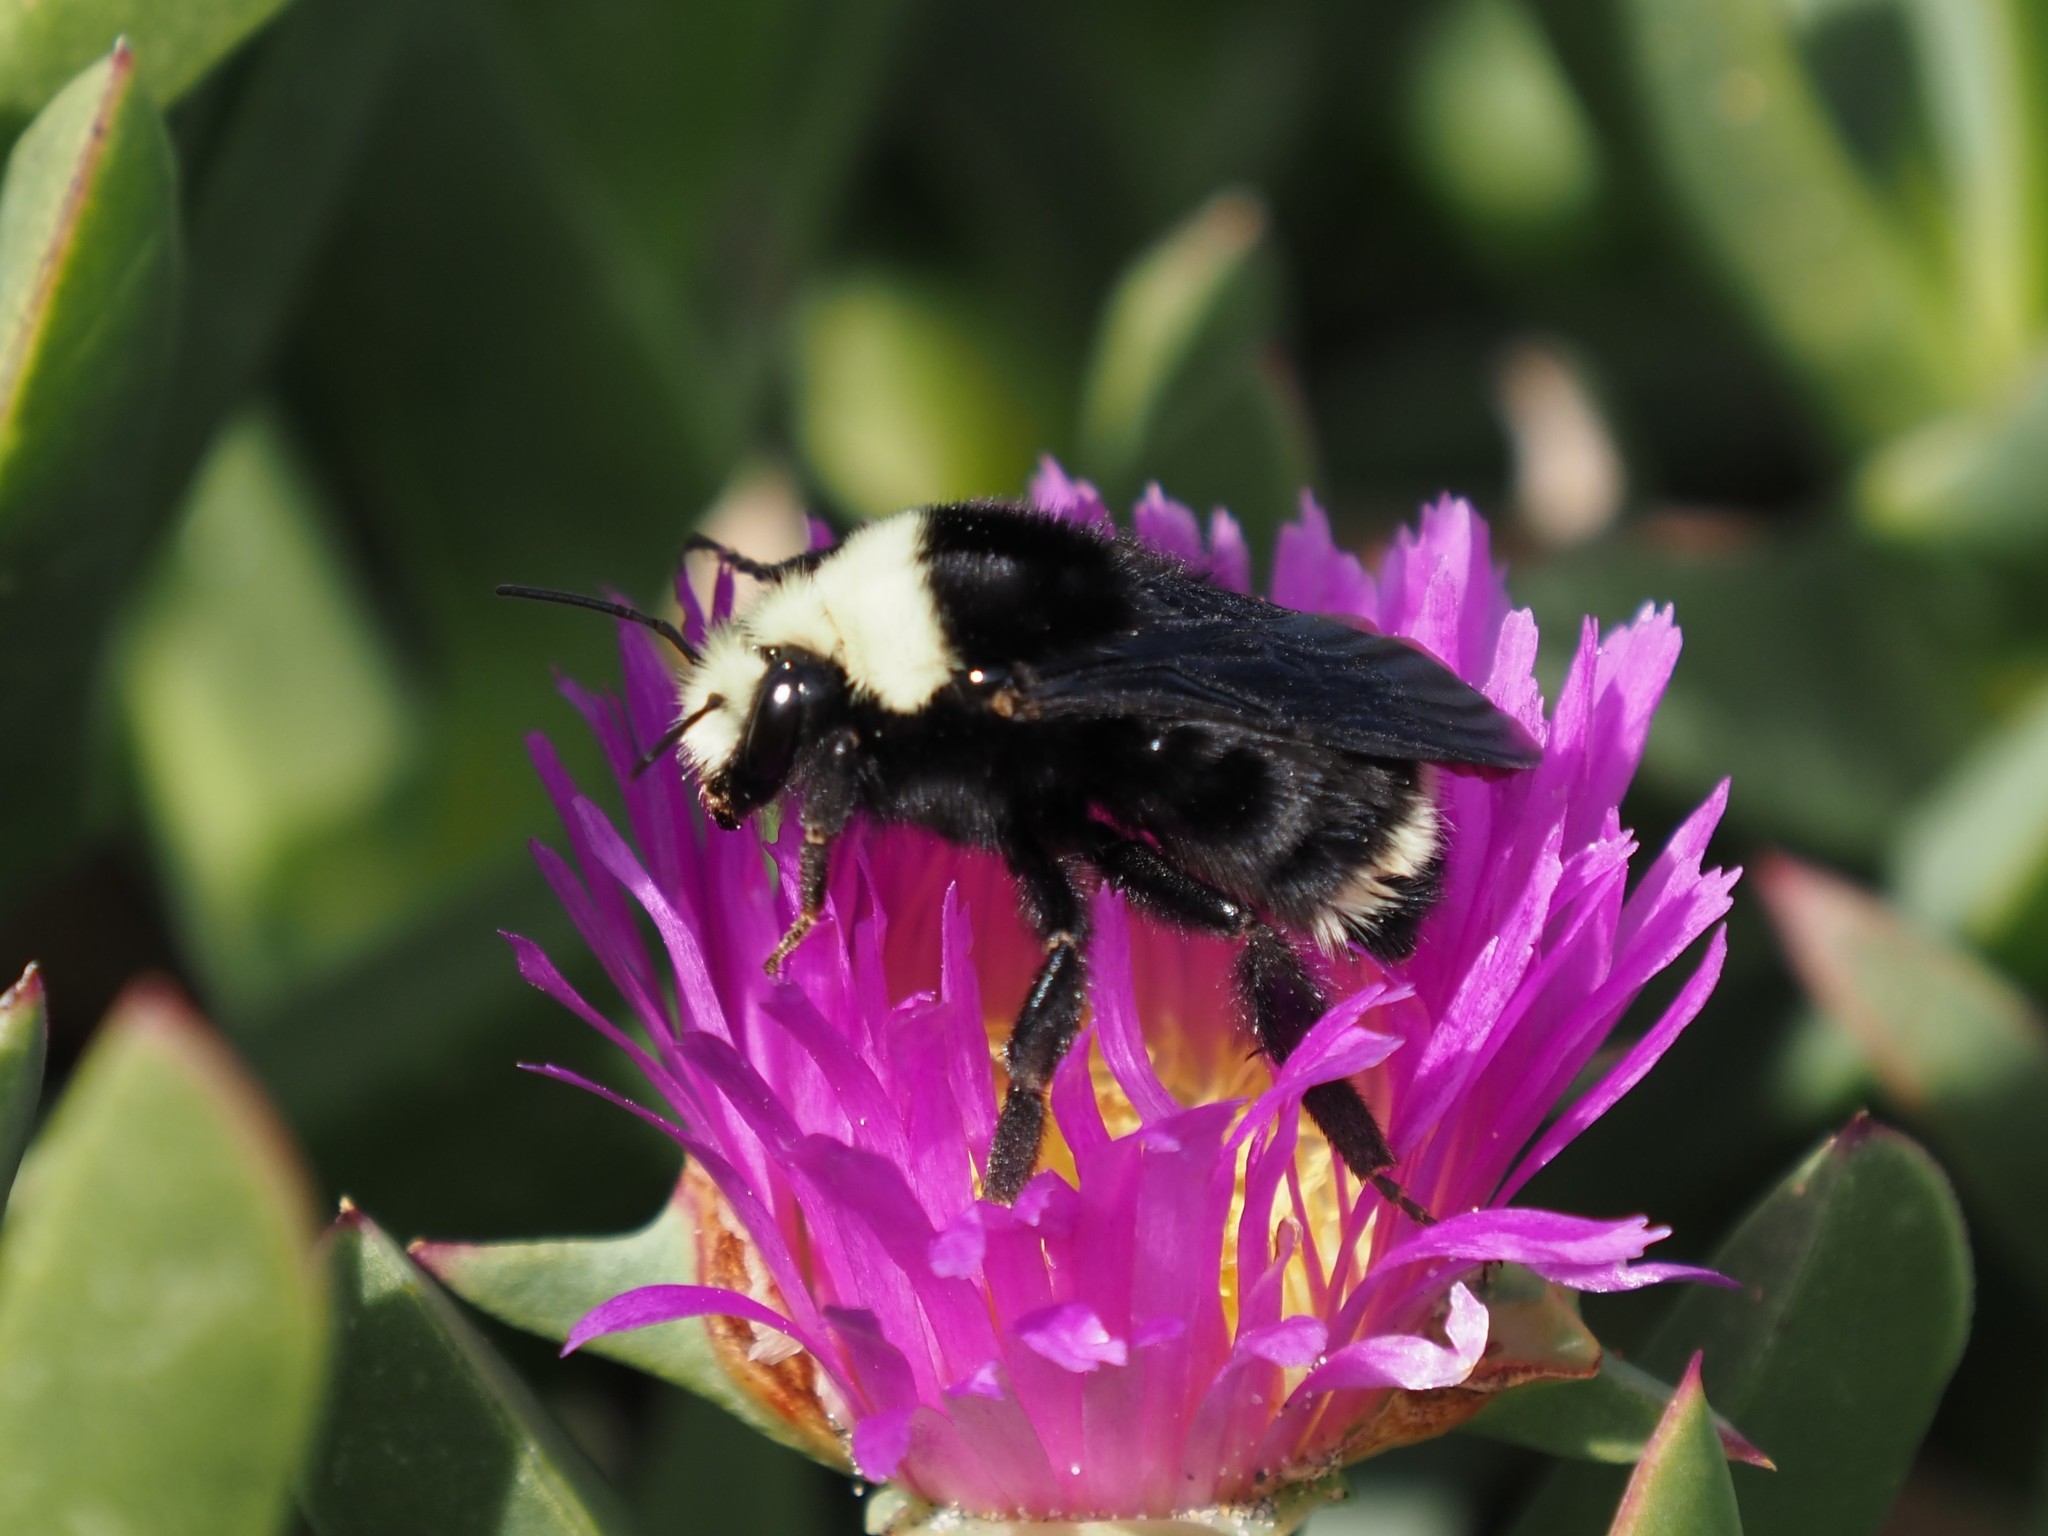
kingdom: Animalia
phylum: Arthropoda
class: Insecta
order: Hymenoptera
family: Apidae
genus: Bombus
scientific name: Bombus vosnesenskii
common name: Vosnesensky bumble bee
